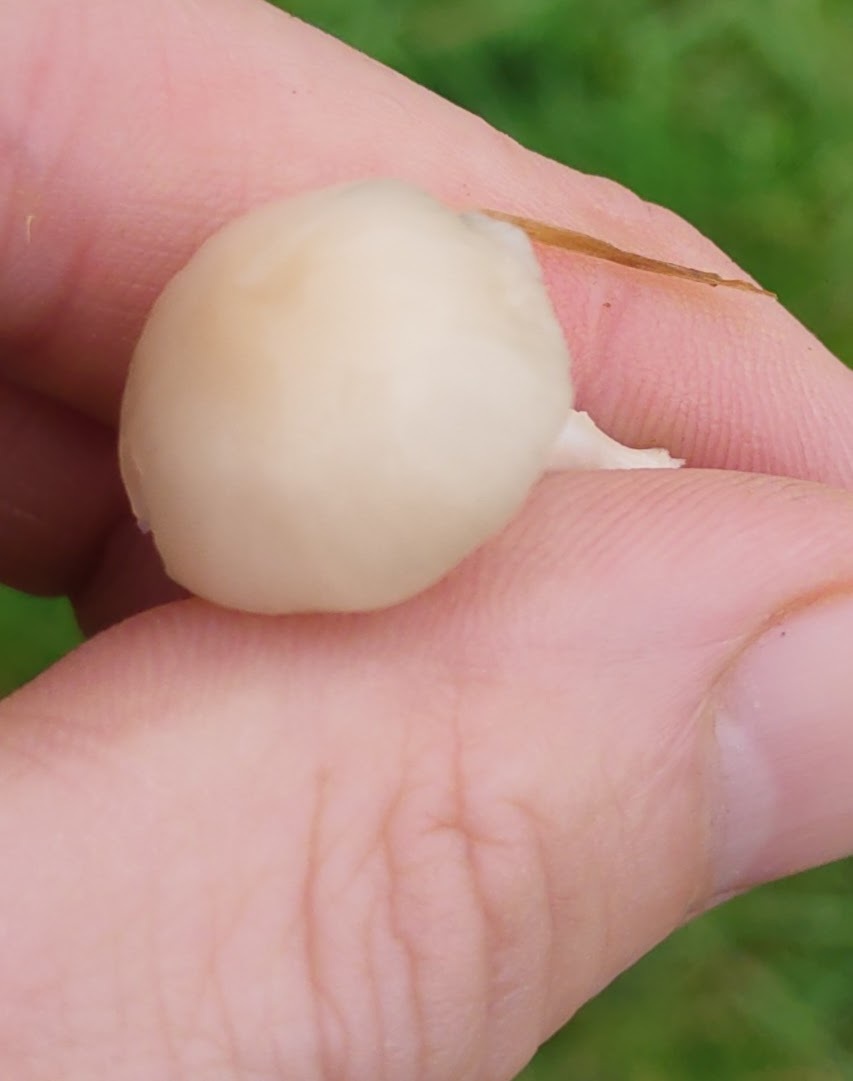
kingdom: Fungi
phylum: Basidiomycota
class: Agaricomycetes
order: Agaricales
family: Hygrophoraceae
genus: Cuphophyllus
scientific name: Cuphophyllus virgineus
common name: Snowy waxcap
